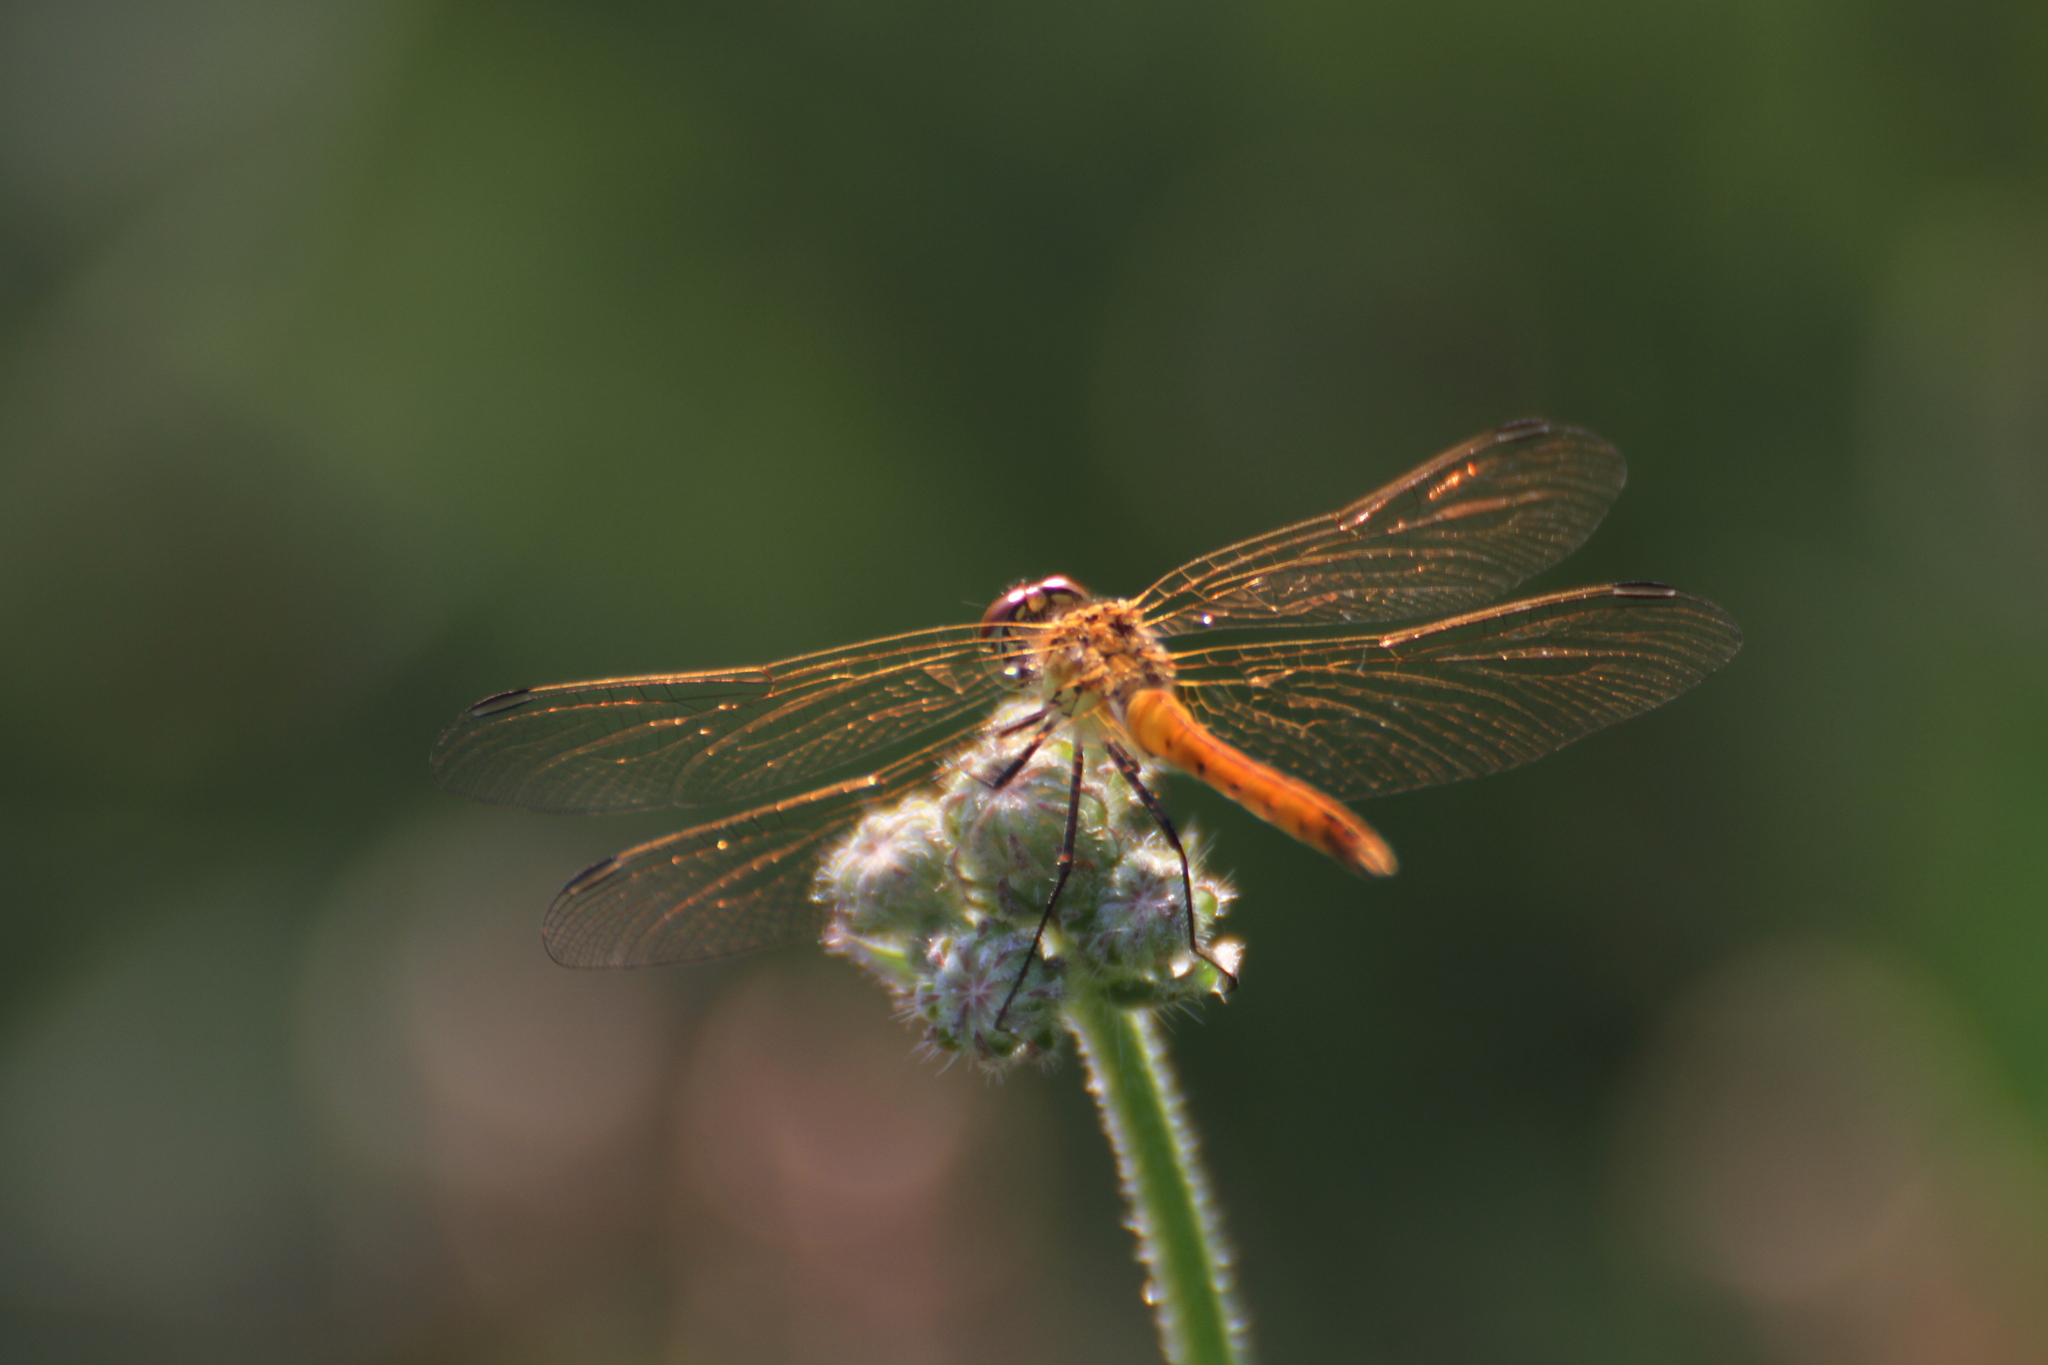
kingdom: Animalia
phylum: Arthropoda
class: Insecta
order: Odonata
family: Libellulidae
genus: Sympetrum
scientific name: Sympetrum depressiusculum
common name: Spotted darter
